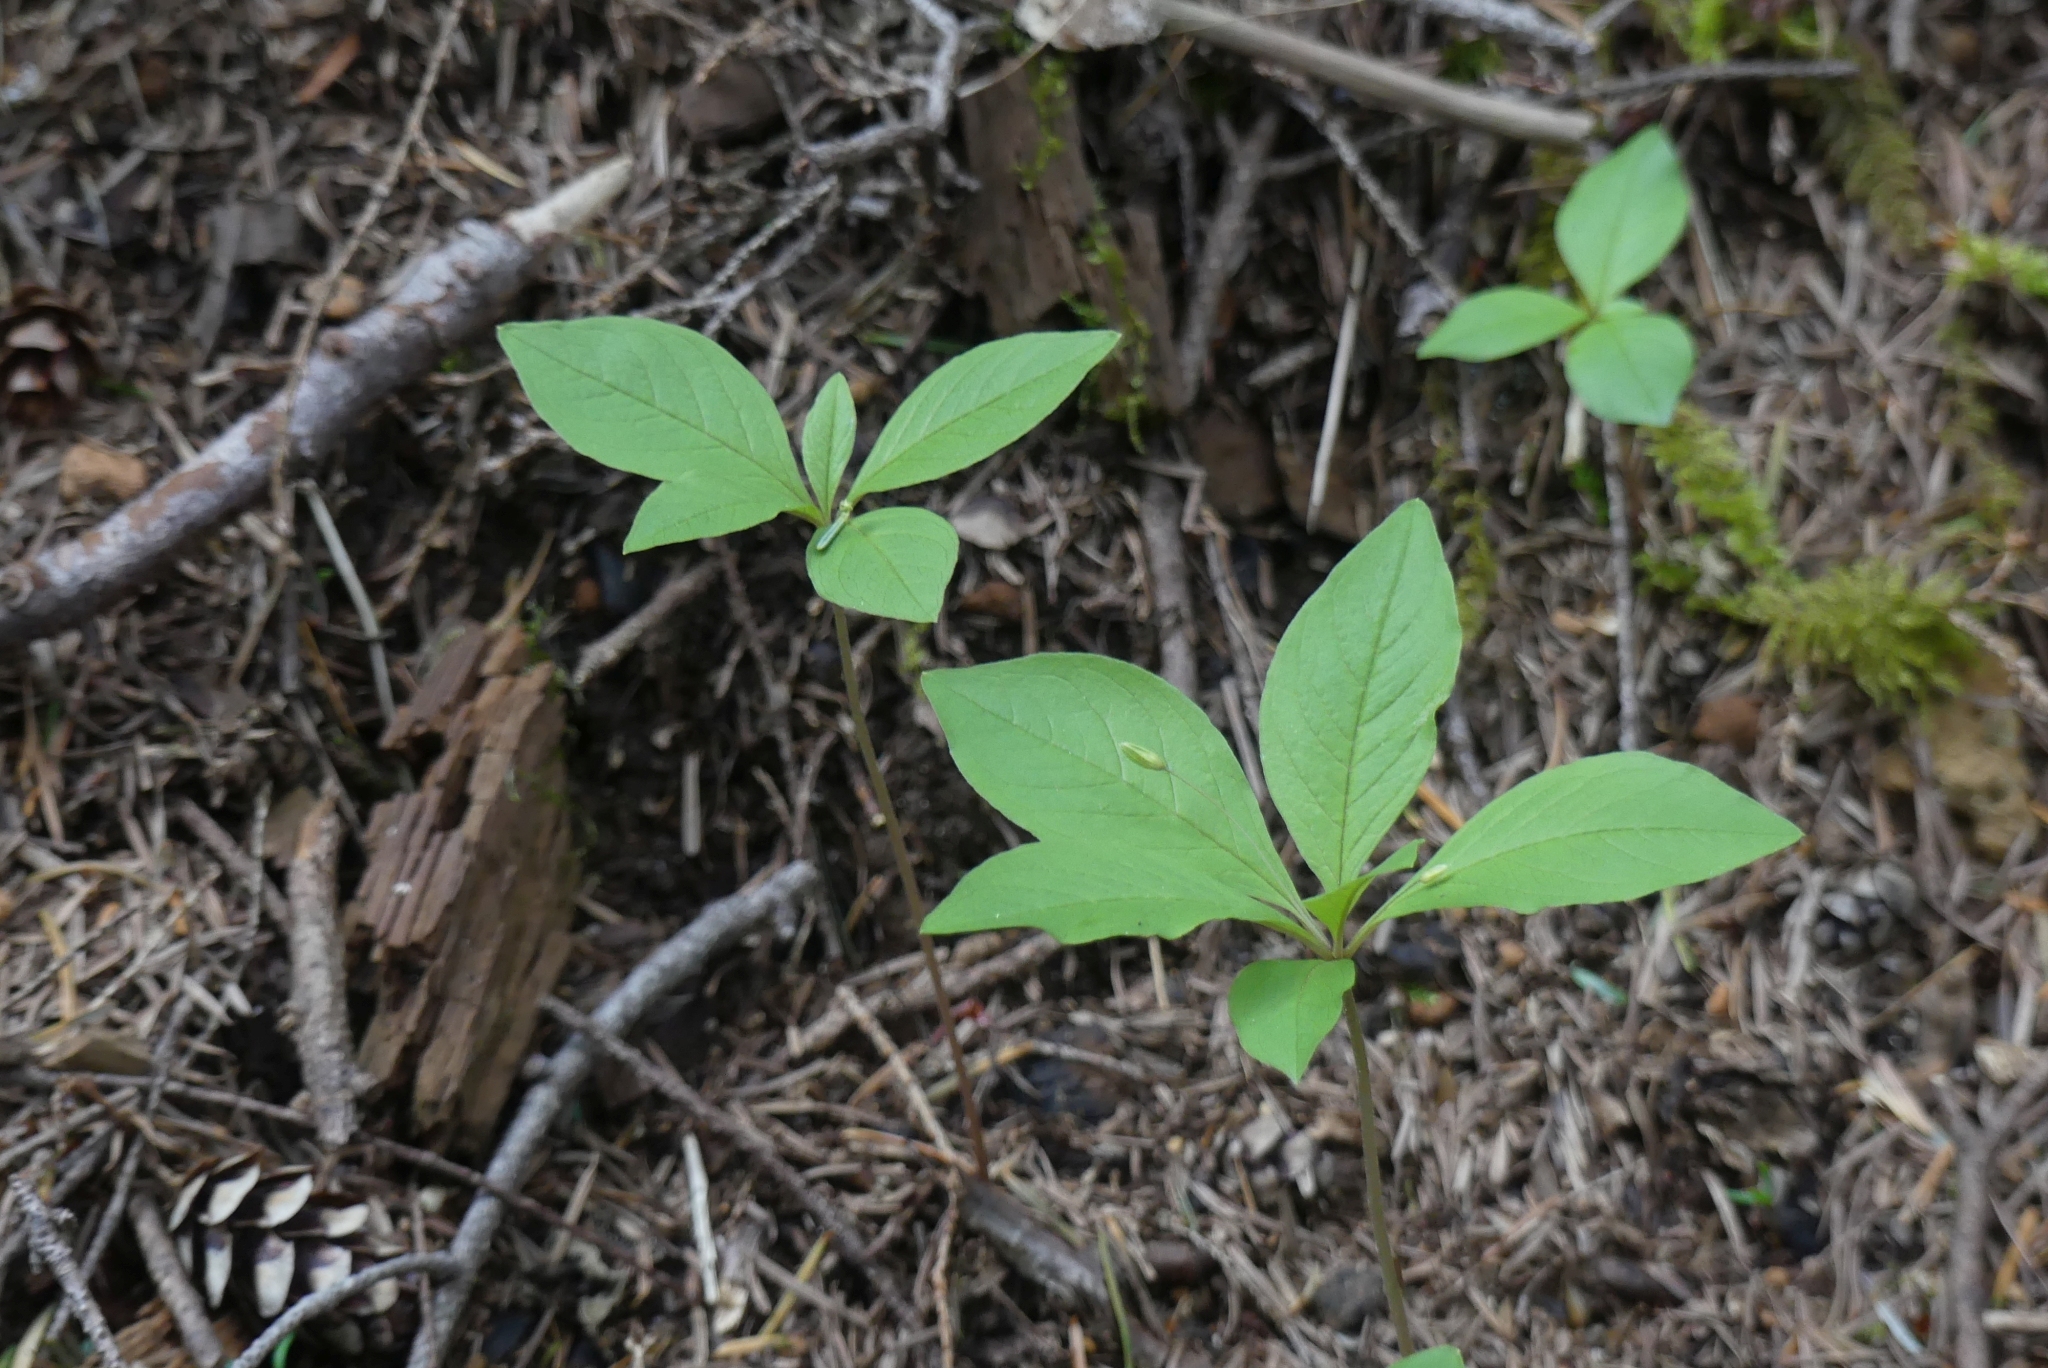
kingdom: Plantae
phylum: Tracheophyta
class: Magnoliopsida
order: Ericales
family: Primulaceae
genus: Lysimachia
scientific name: Lysimachia latifolia
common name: Pacific starflower
